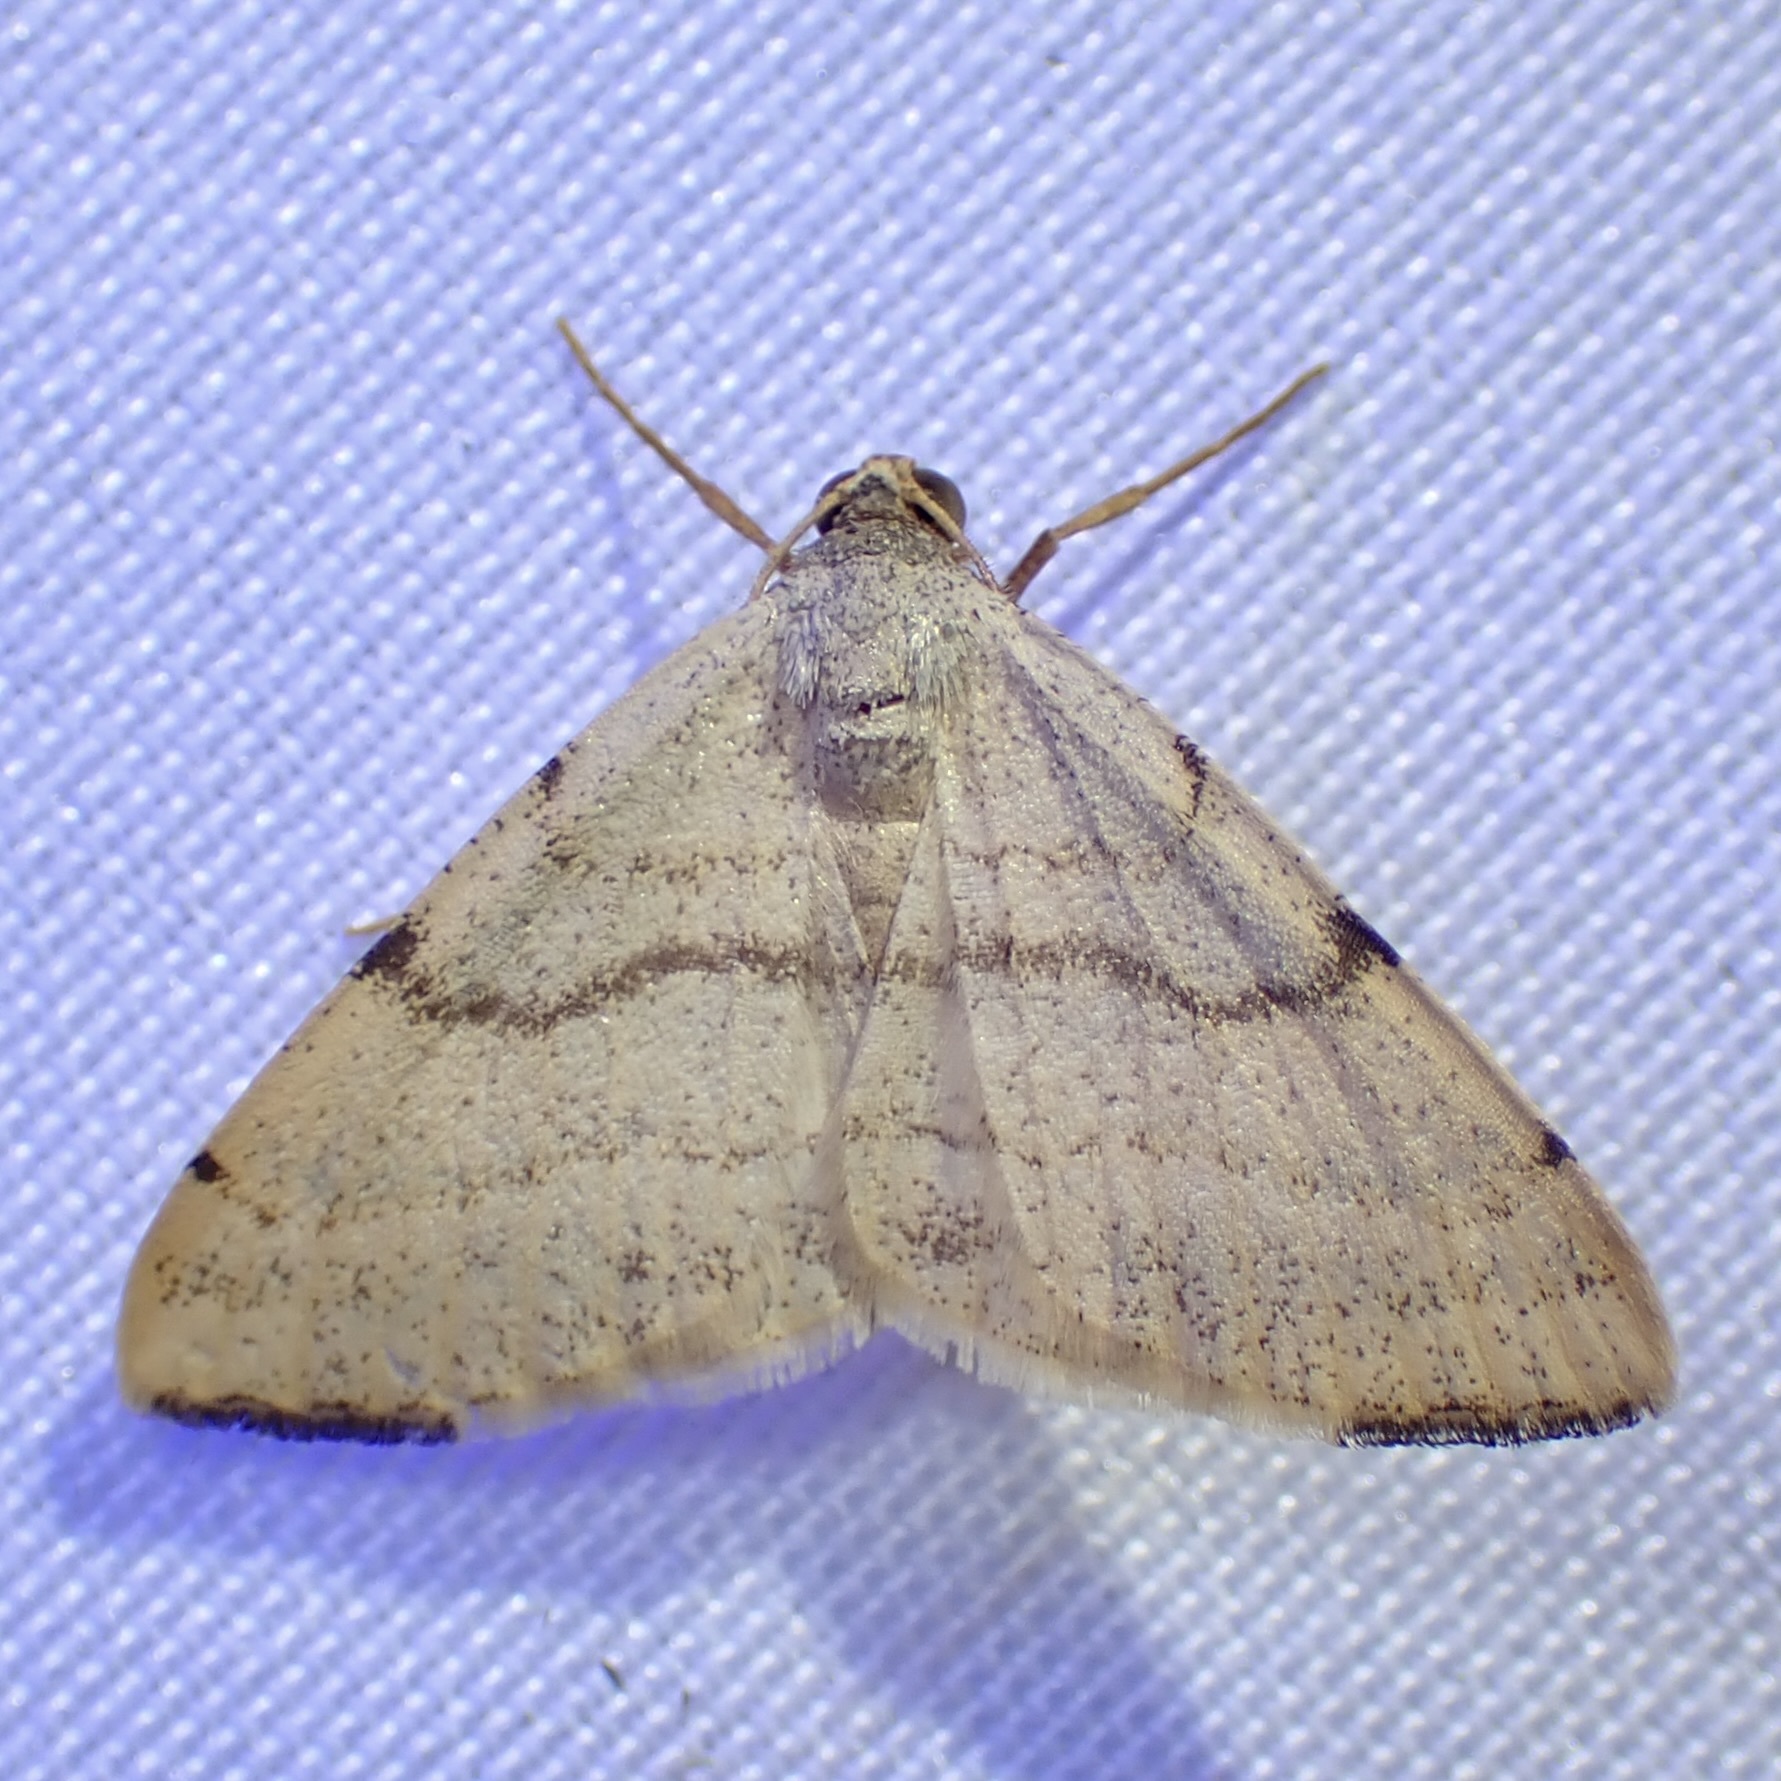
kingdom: Animalia
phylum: Arthropoda
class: Insecta
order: Lepidoptera
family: Geometridae
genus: Macaria
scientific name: Macaria octolineata
